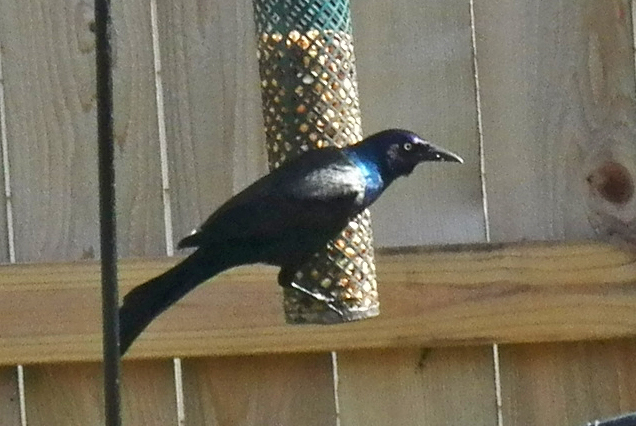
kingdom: Animalia
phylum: Chordata
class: Aves
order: Passeriformes
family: Icteridae
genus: Quiscalus
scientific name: Quiscalus quiscula
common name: Common grackle
